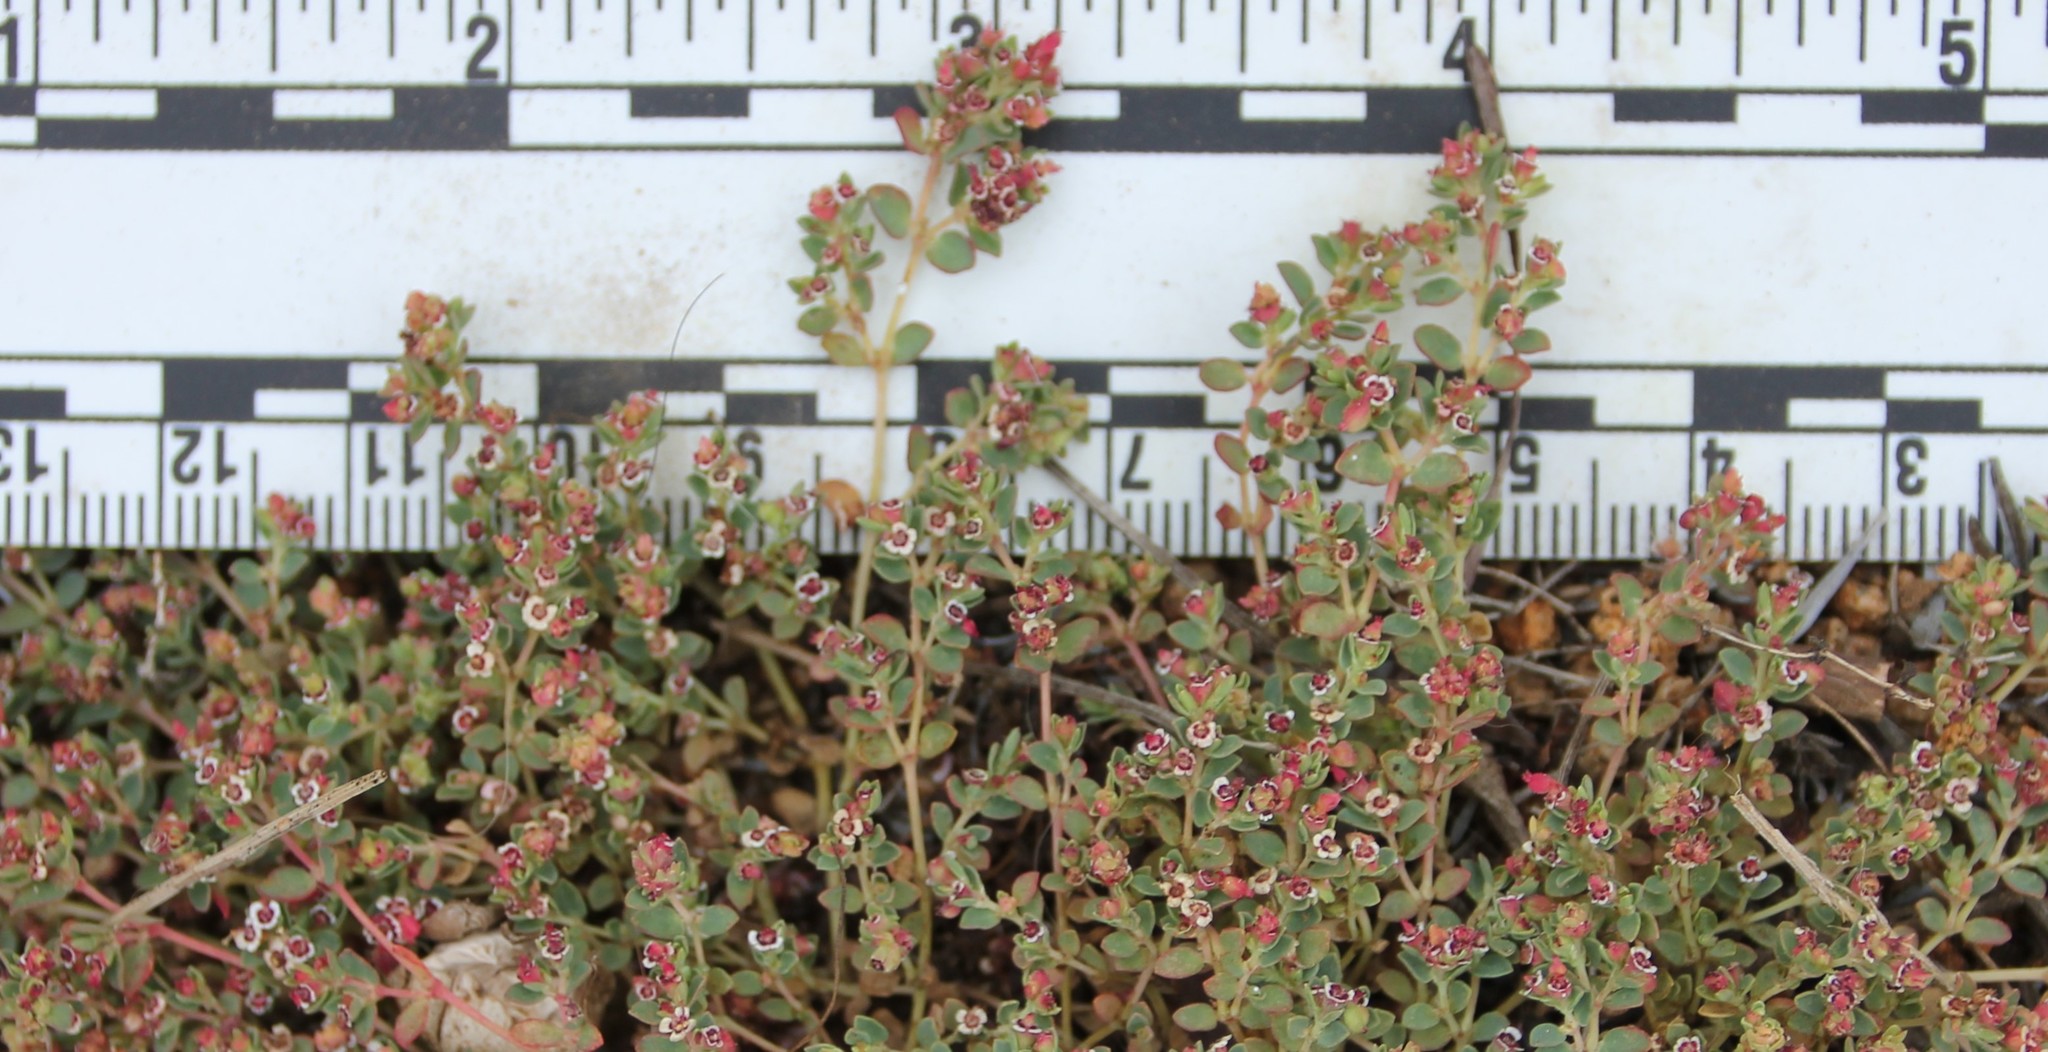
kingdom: Plantae
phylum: Tracheophyta
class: Magnoliopsida
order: Malpighiales
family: Euphorbiaceae
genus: Euphorbia
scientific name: Euphorbia polycarpa
